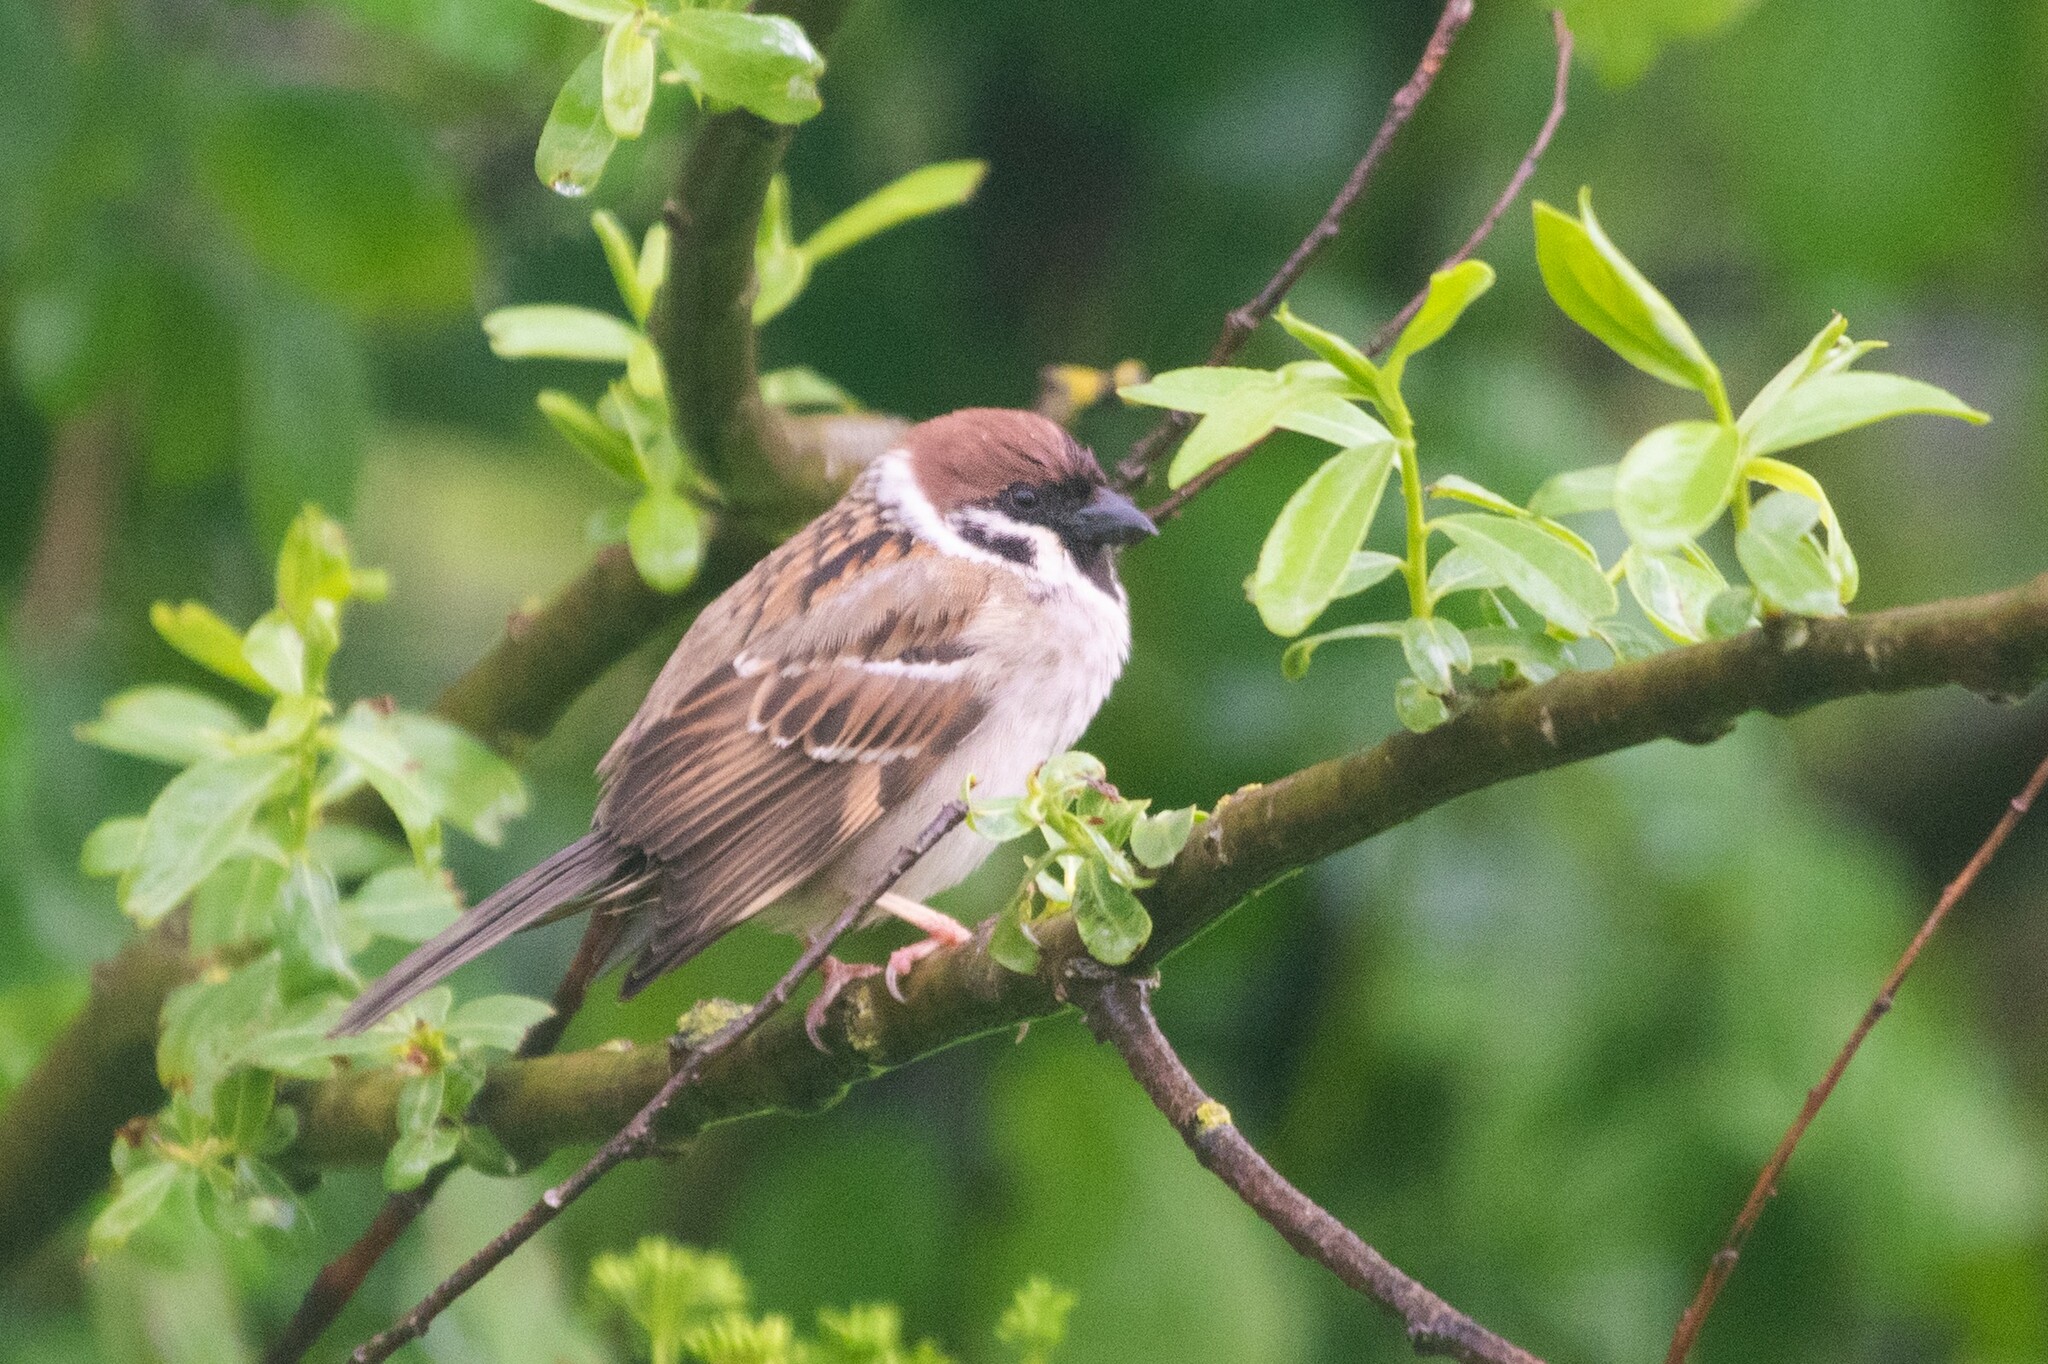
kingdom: Animalia
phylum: Chordata
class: Aves
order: Passeriformes
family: Passeridae
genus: Passer
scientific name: Passer montanus
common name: Eurasian tree sparrow
